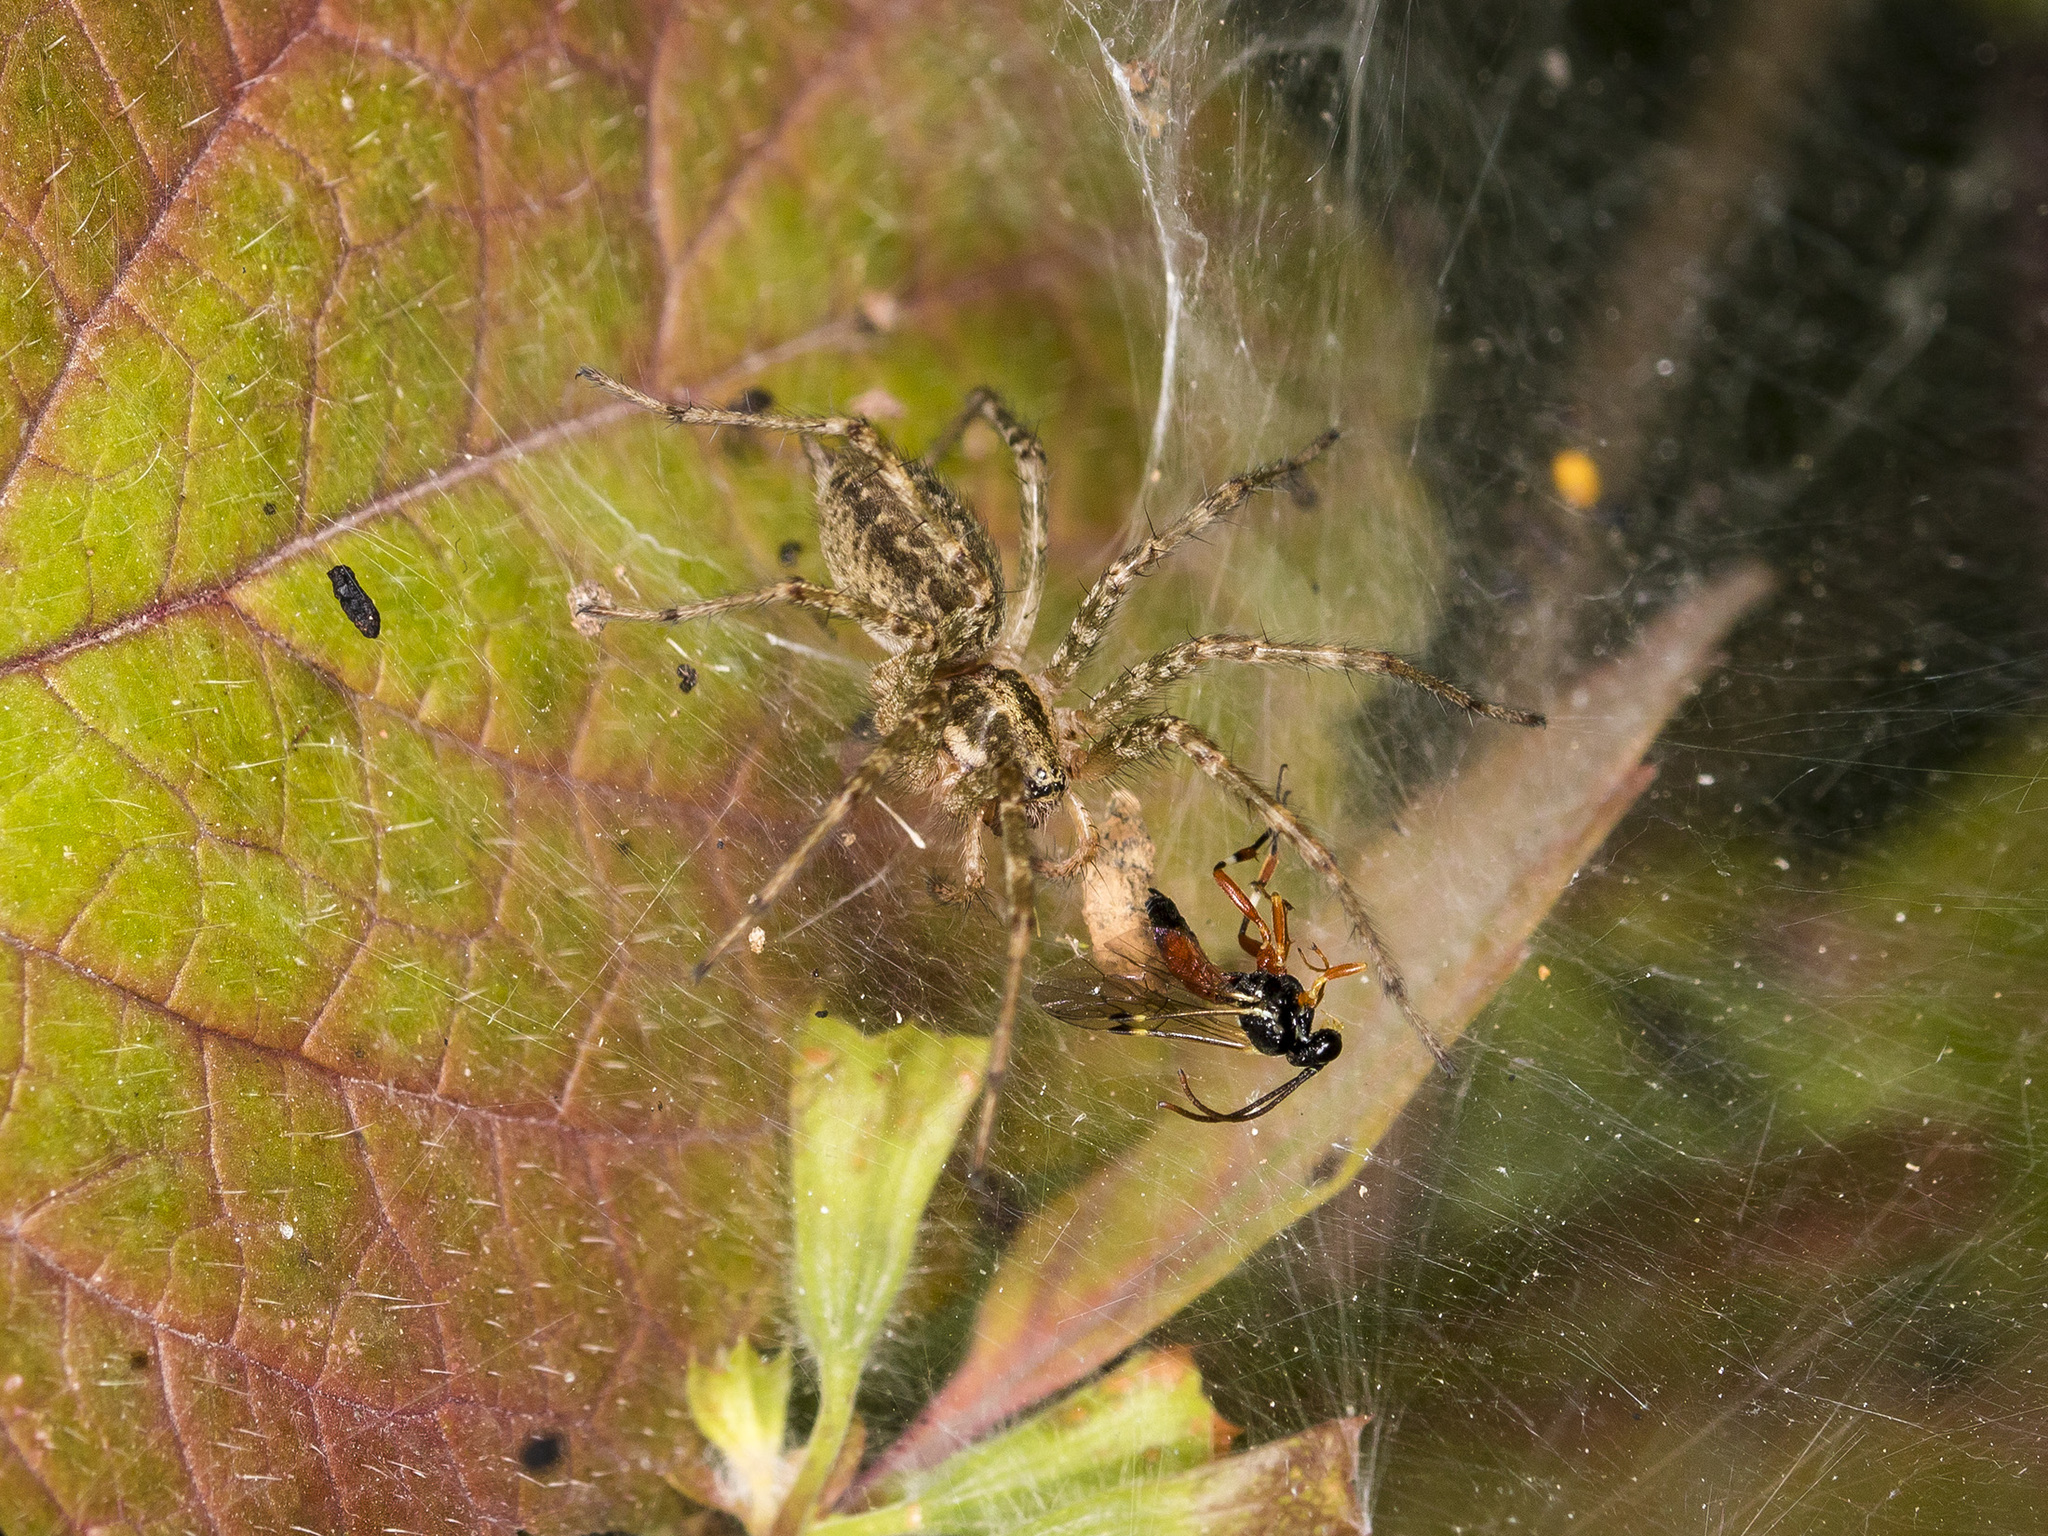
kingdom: Animalia
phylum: Arthropoda
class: Arachnida
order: Araneae
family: Agelenidae
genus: Allagelena
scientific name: Allagelena gracilens
